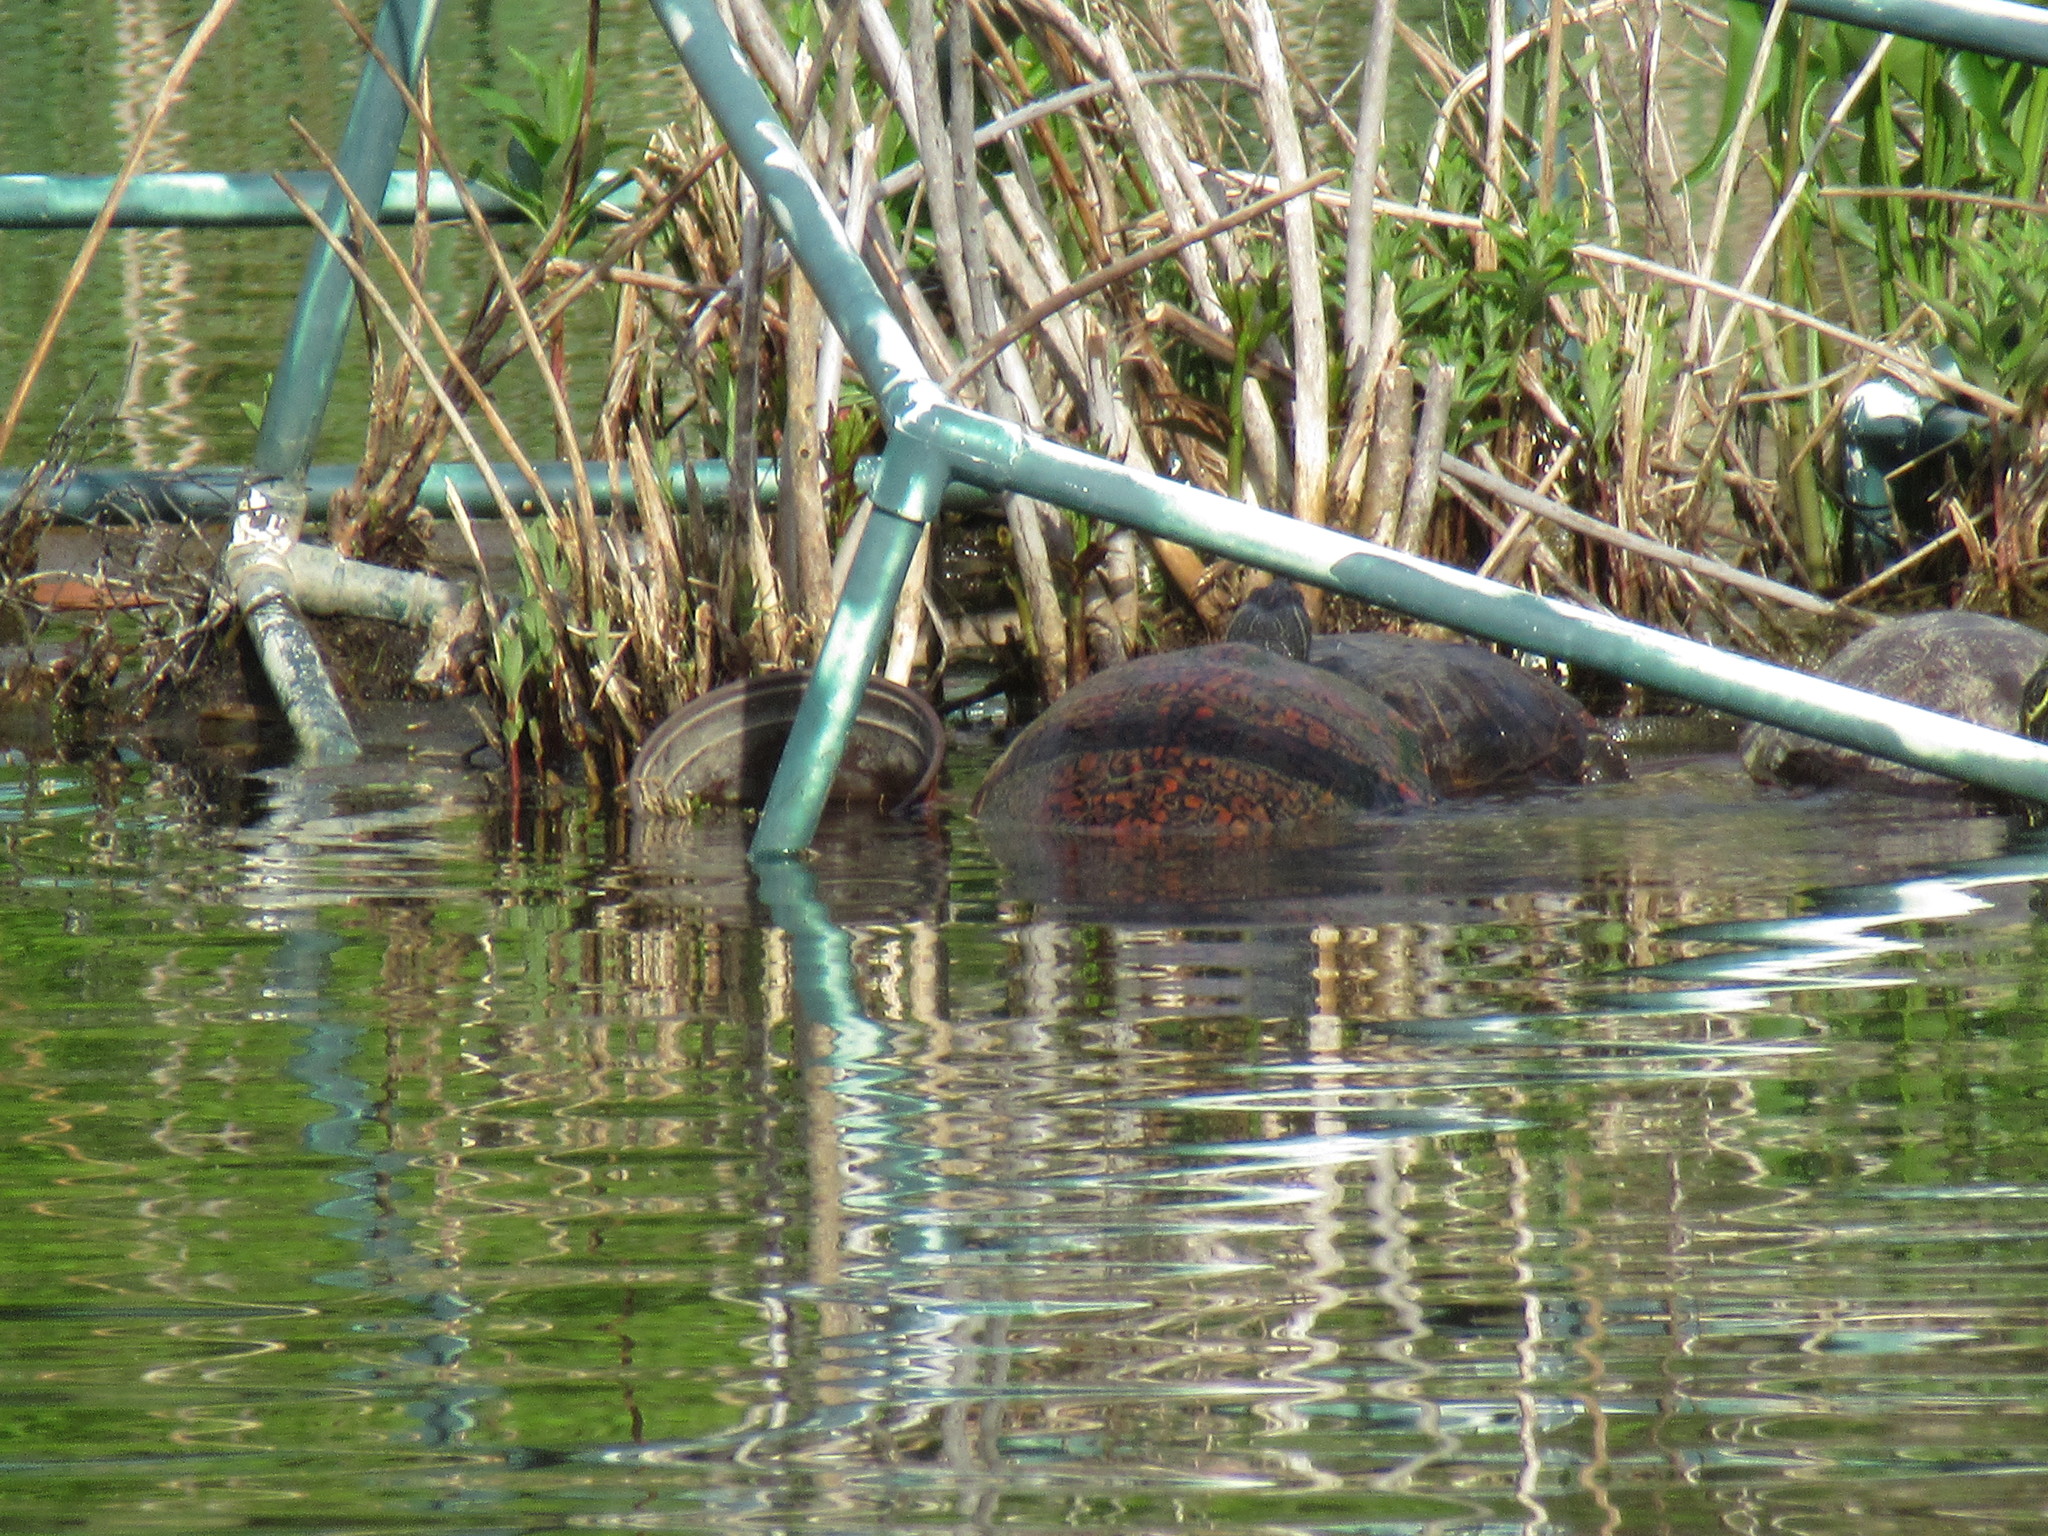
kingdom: Animalia
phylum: Chordata
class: Testudines
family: Emydidae
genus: Pseudemys
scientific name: Pseudemys rubriventris
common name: American red-bellied turtle
